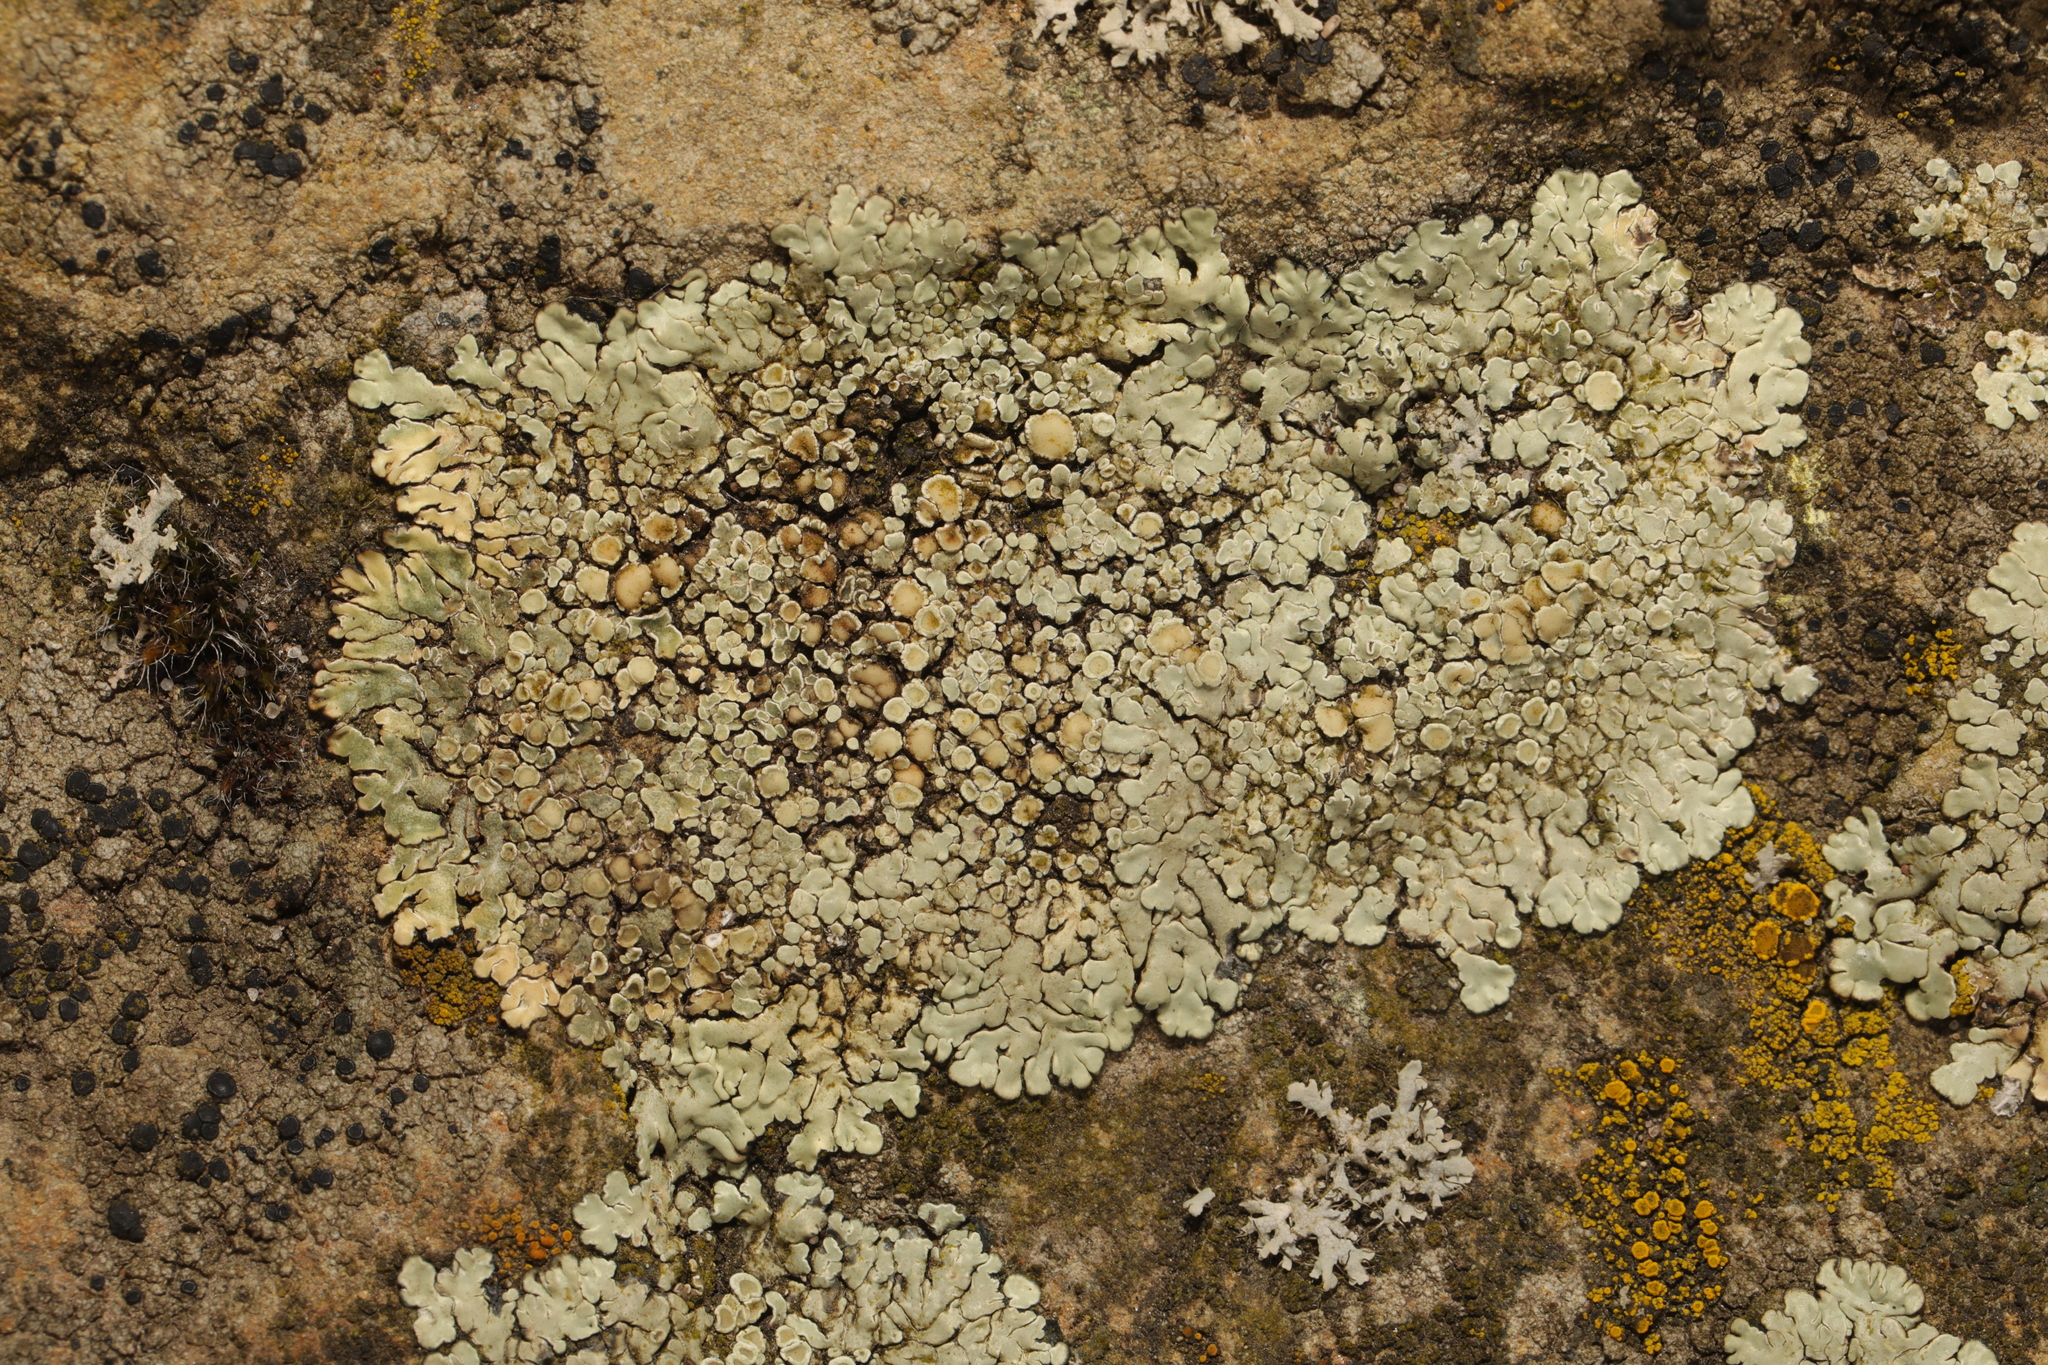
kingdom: Fungi
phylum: Ascomycota
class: Lecanoromycetes
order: Lecanorales
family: Lecanoraceae
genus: Protoparmeliopsis
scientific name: Protoparmeliopsis muralis
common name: Stonewall rim lichen
